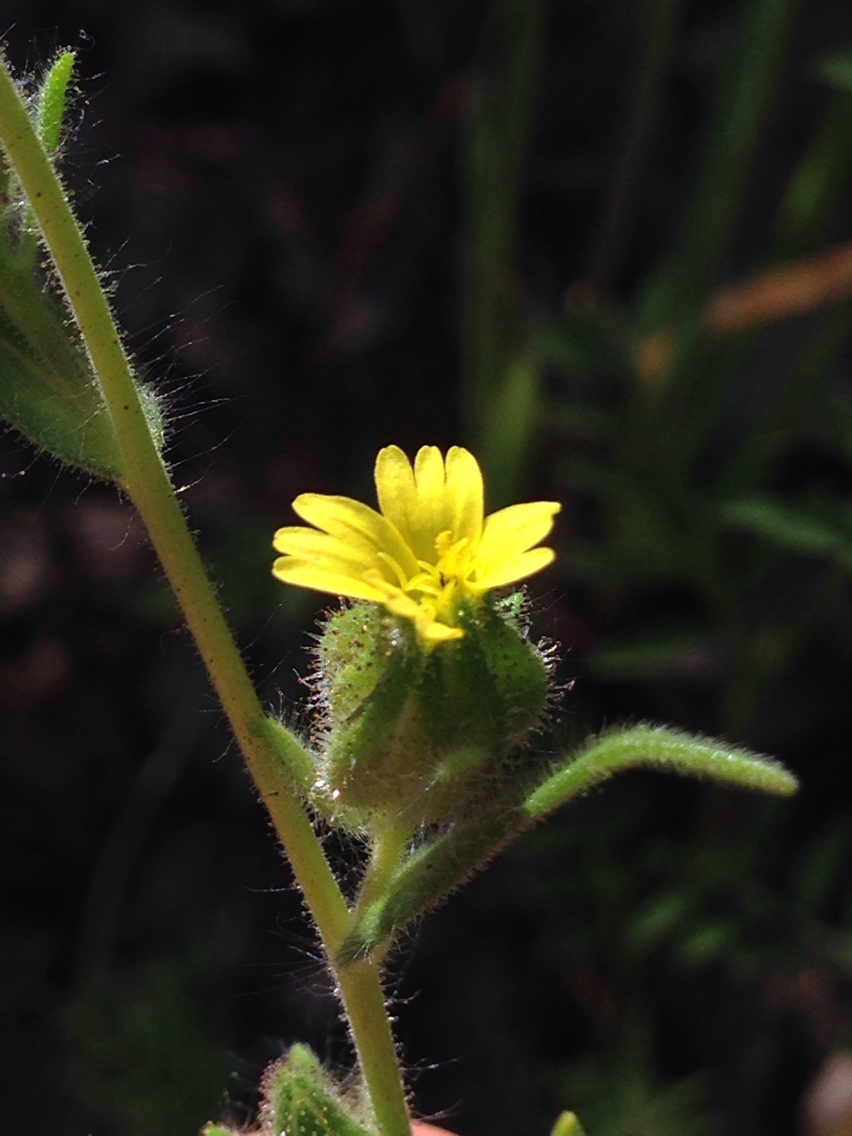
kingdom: Plantae
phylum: Tracheophyta
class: Magnoliopsida
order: Asterales
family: Asteraceae
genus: Madia
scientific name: Madia gracilis
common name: Grassy tarweed
